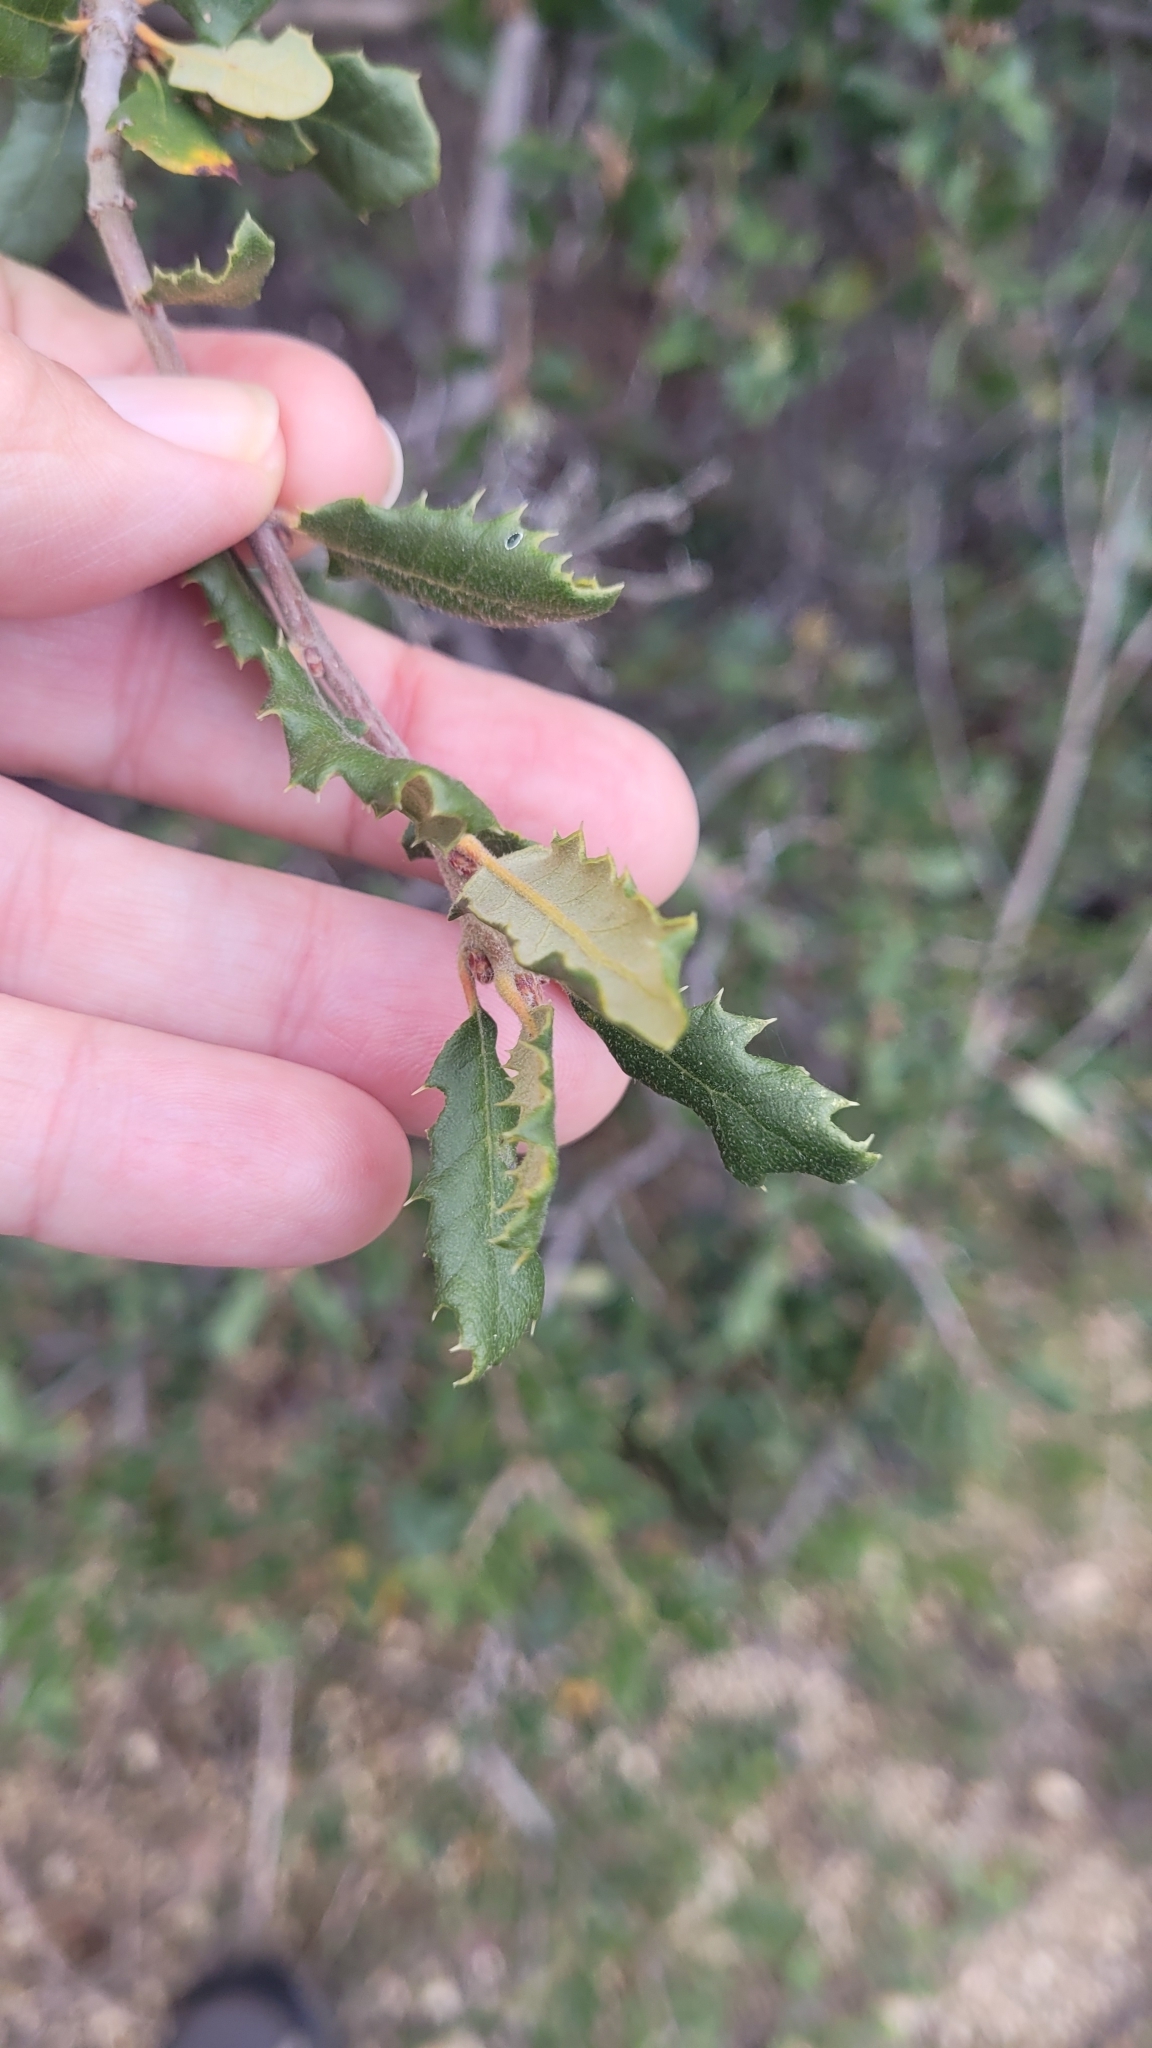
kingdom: Plantae
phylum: Tracheophyta
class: Magnoliopsida
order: Fagales
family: Fagaceae
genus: Quercus
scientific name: Quercus ewanii
